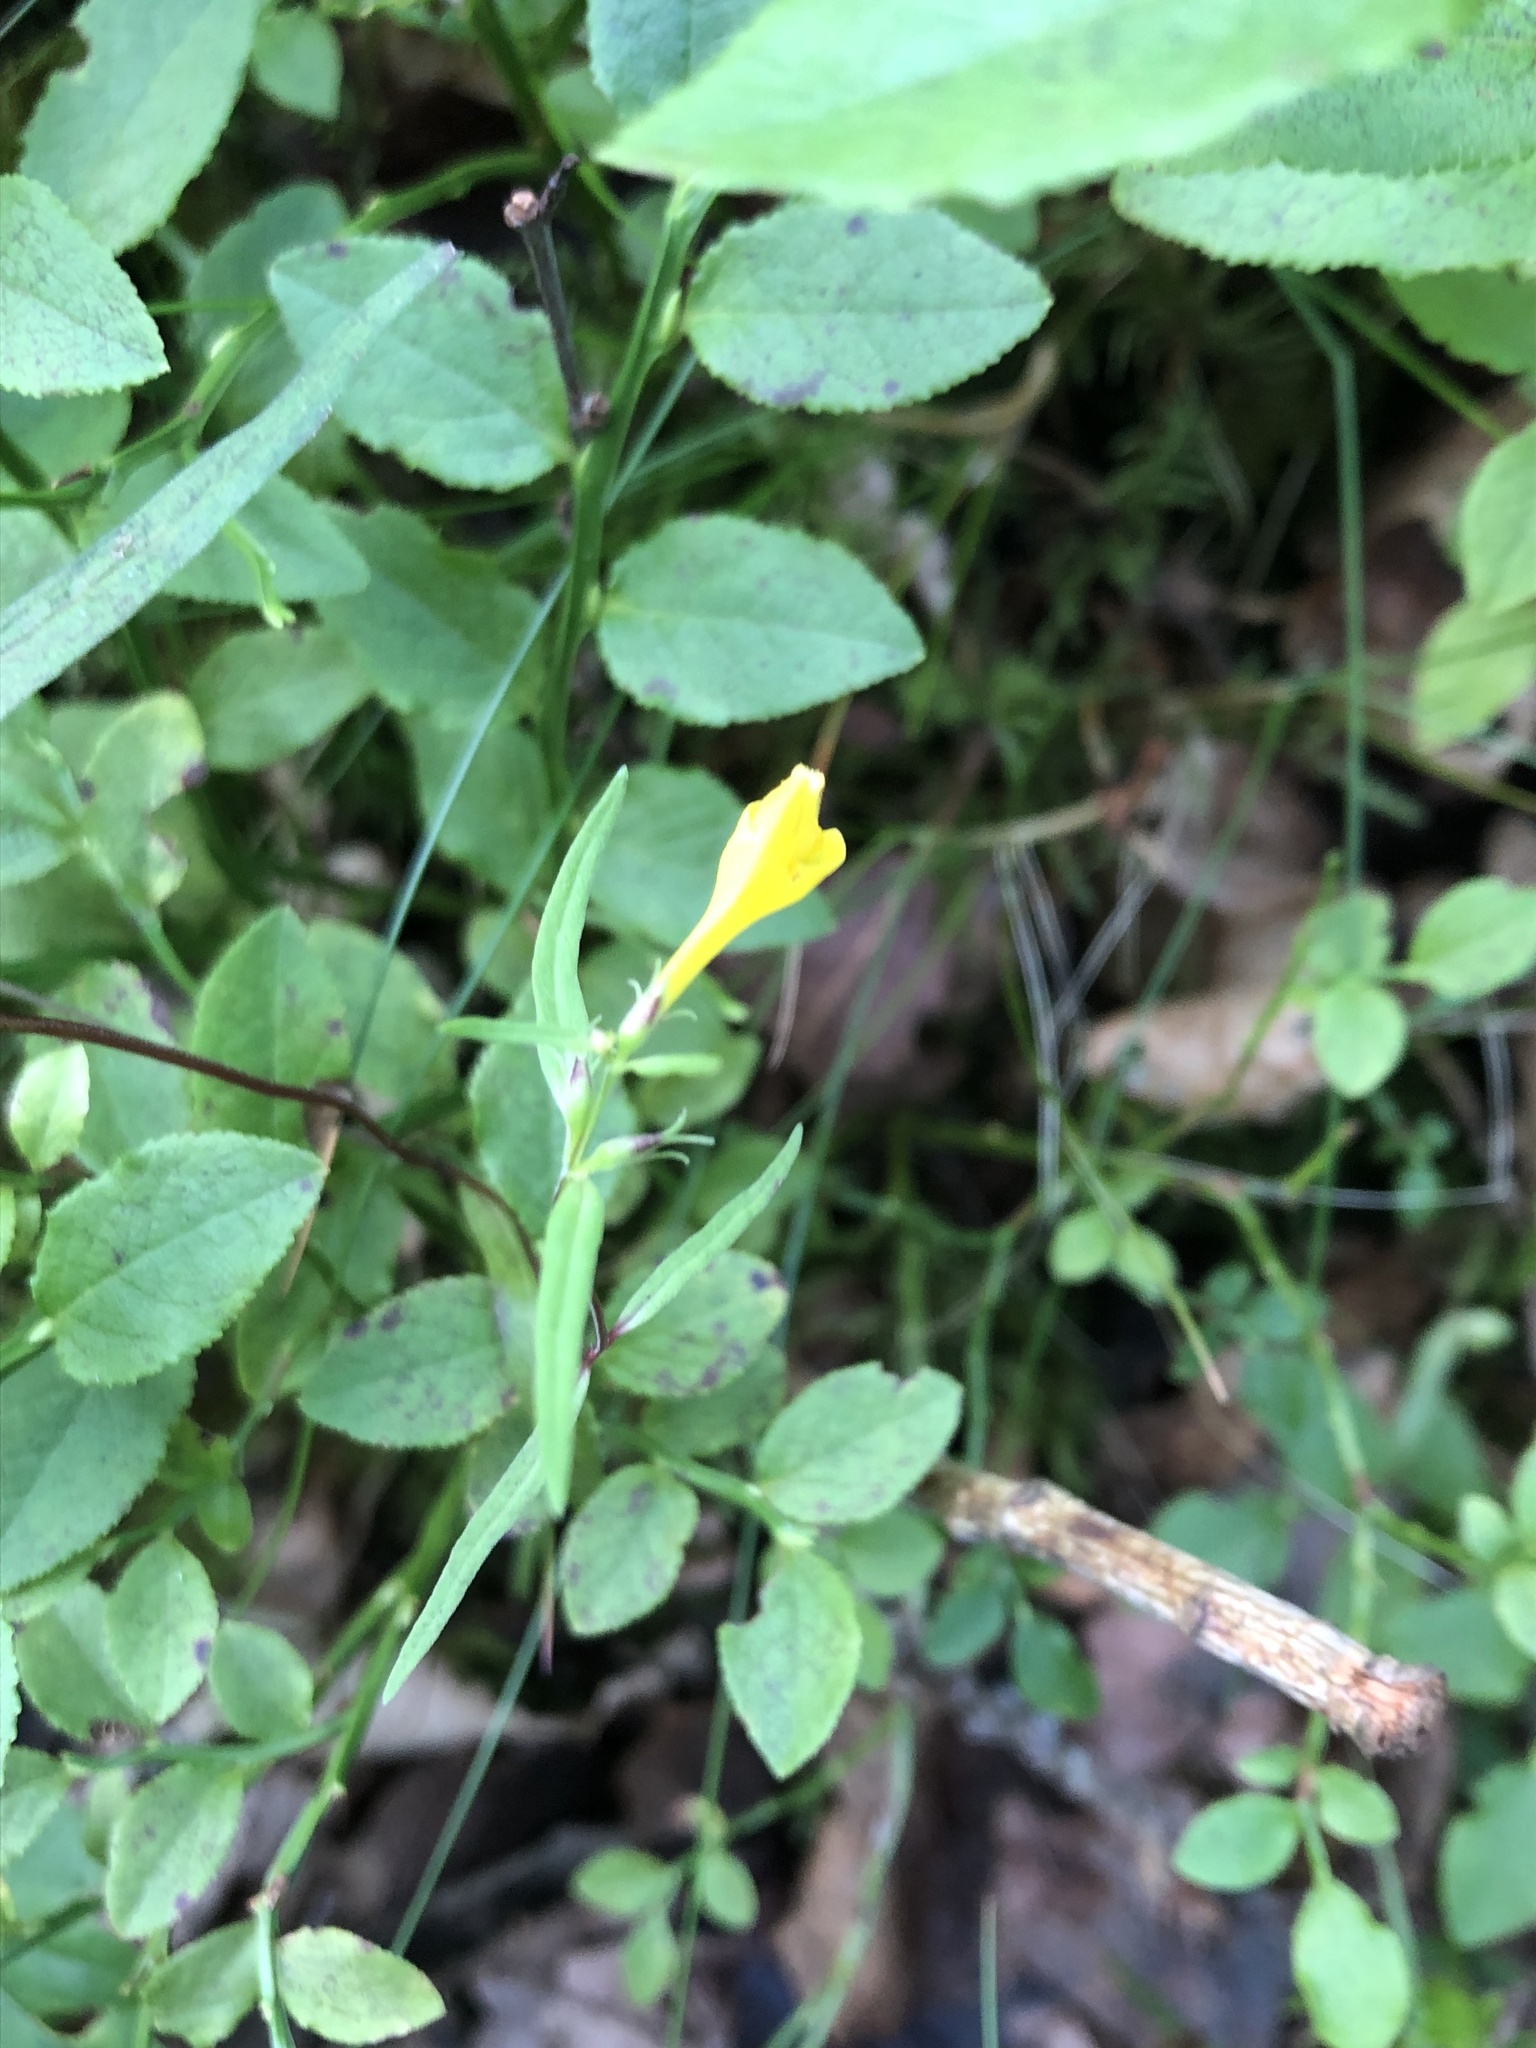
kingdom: Plantae
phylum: Tracheophyta
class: Magnoliopsida
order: Lamiales
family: Orobanchaceae
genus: Melampyrum
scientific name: Melampyrum pratense
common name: Common cow-wheat
